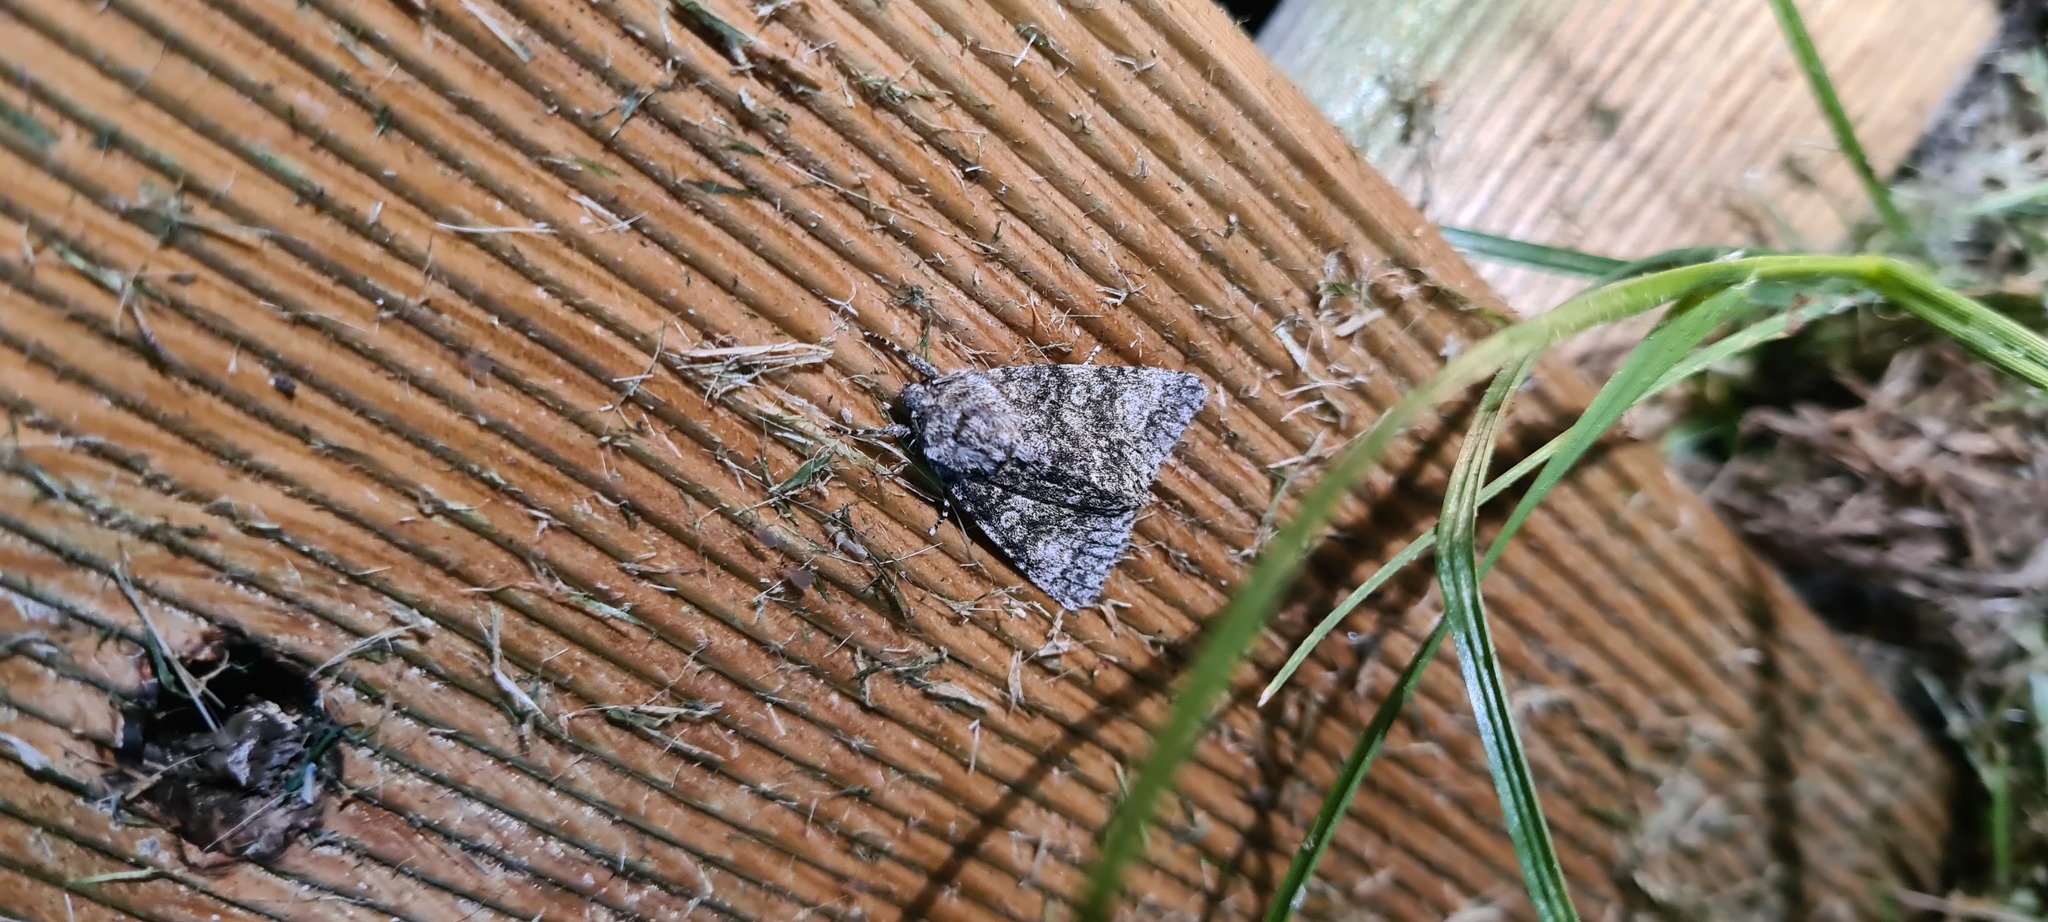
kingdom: Animalia
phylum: Arthropoda
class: Insecta
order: Lepidoptera
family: Noctuidae
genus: Acronicta
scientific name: Acronicta megacephala
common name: Poplar grey
